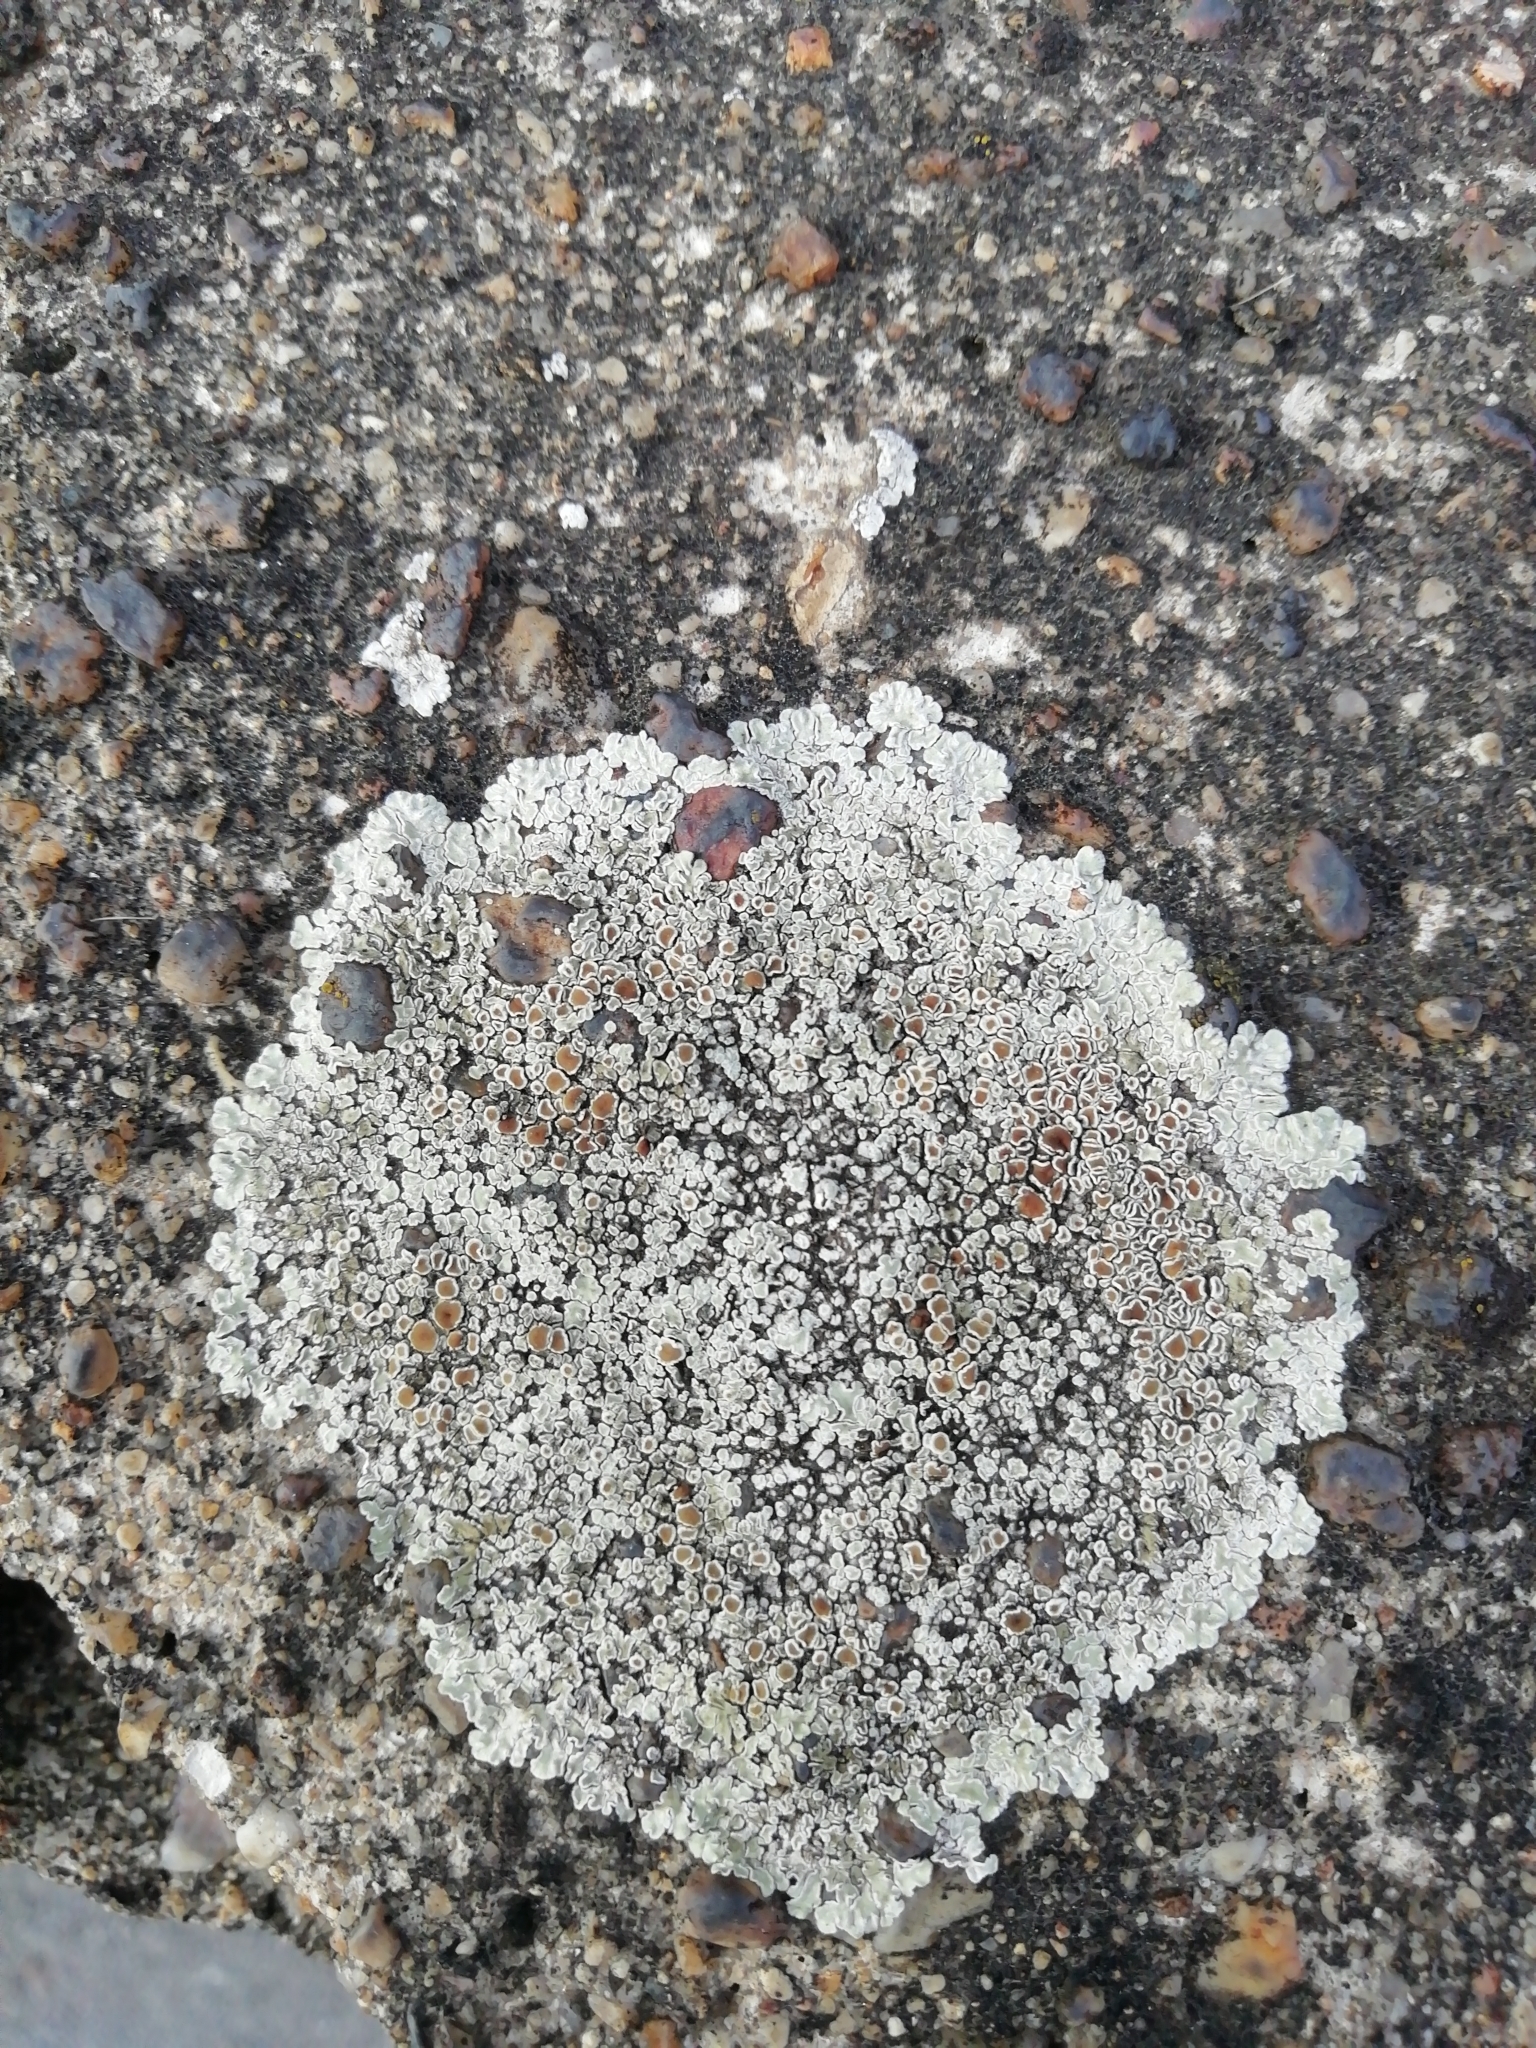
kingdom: Fungi
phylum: Ascomycota
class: Lecanoromycetes
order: Lecanorales
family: Lecanoraceae
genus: Protoparmeliopsis
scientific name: Protoparmeliopsis muralis
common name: Stonewall rim lichen
